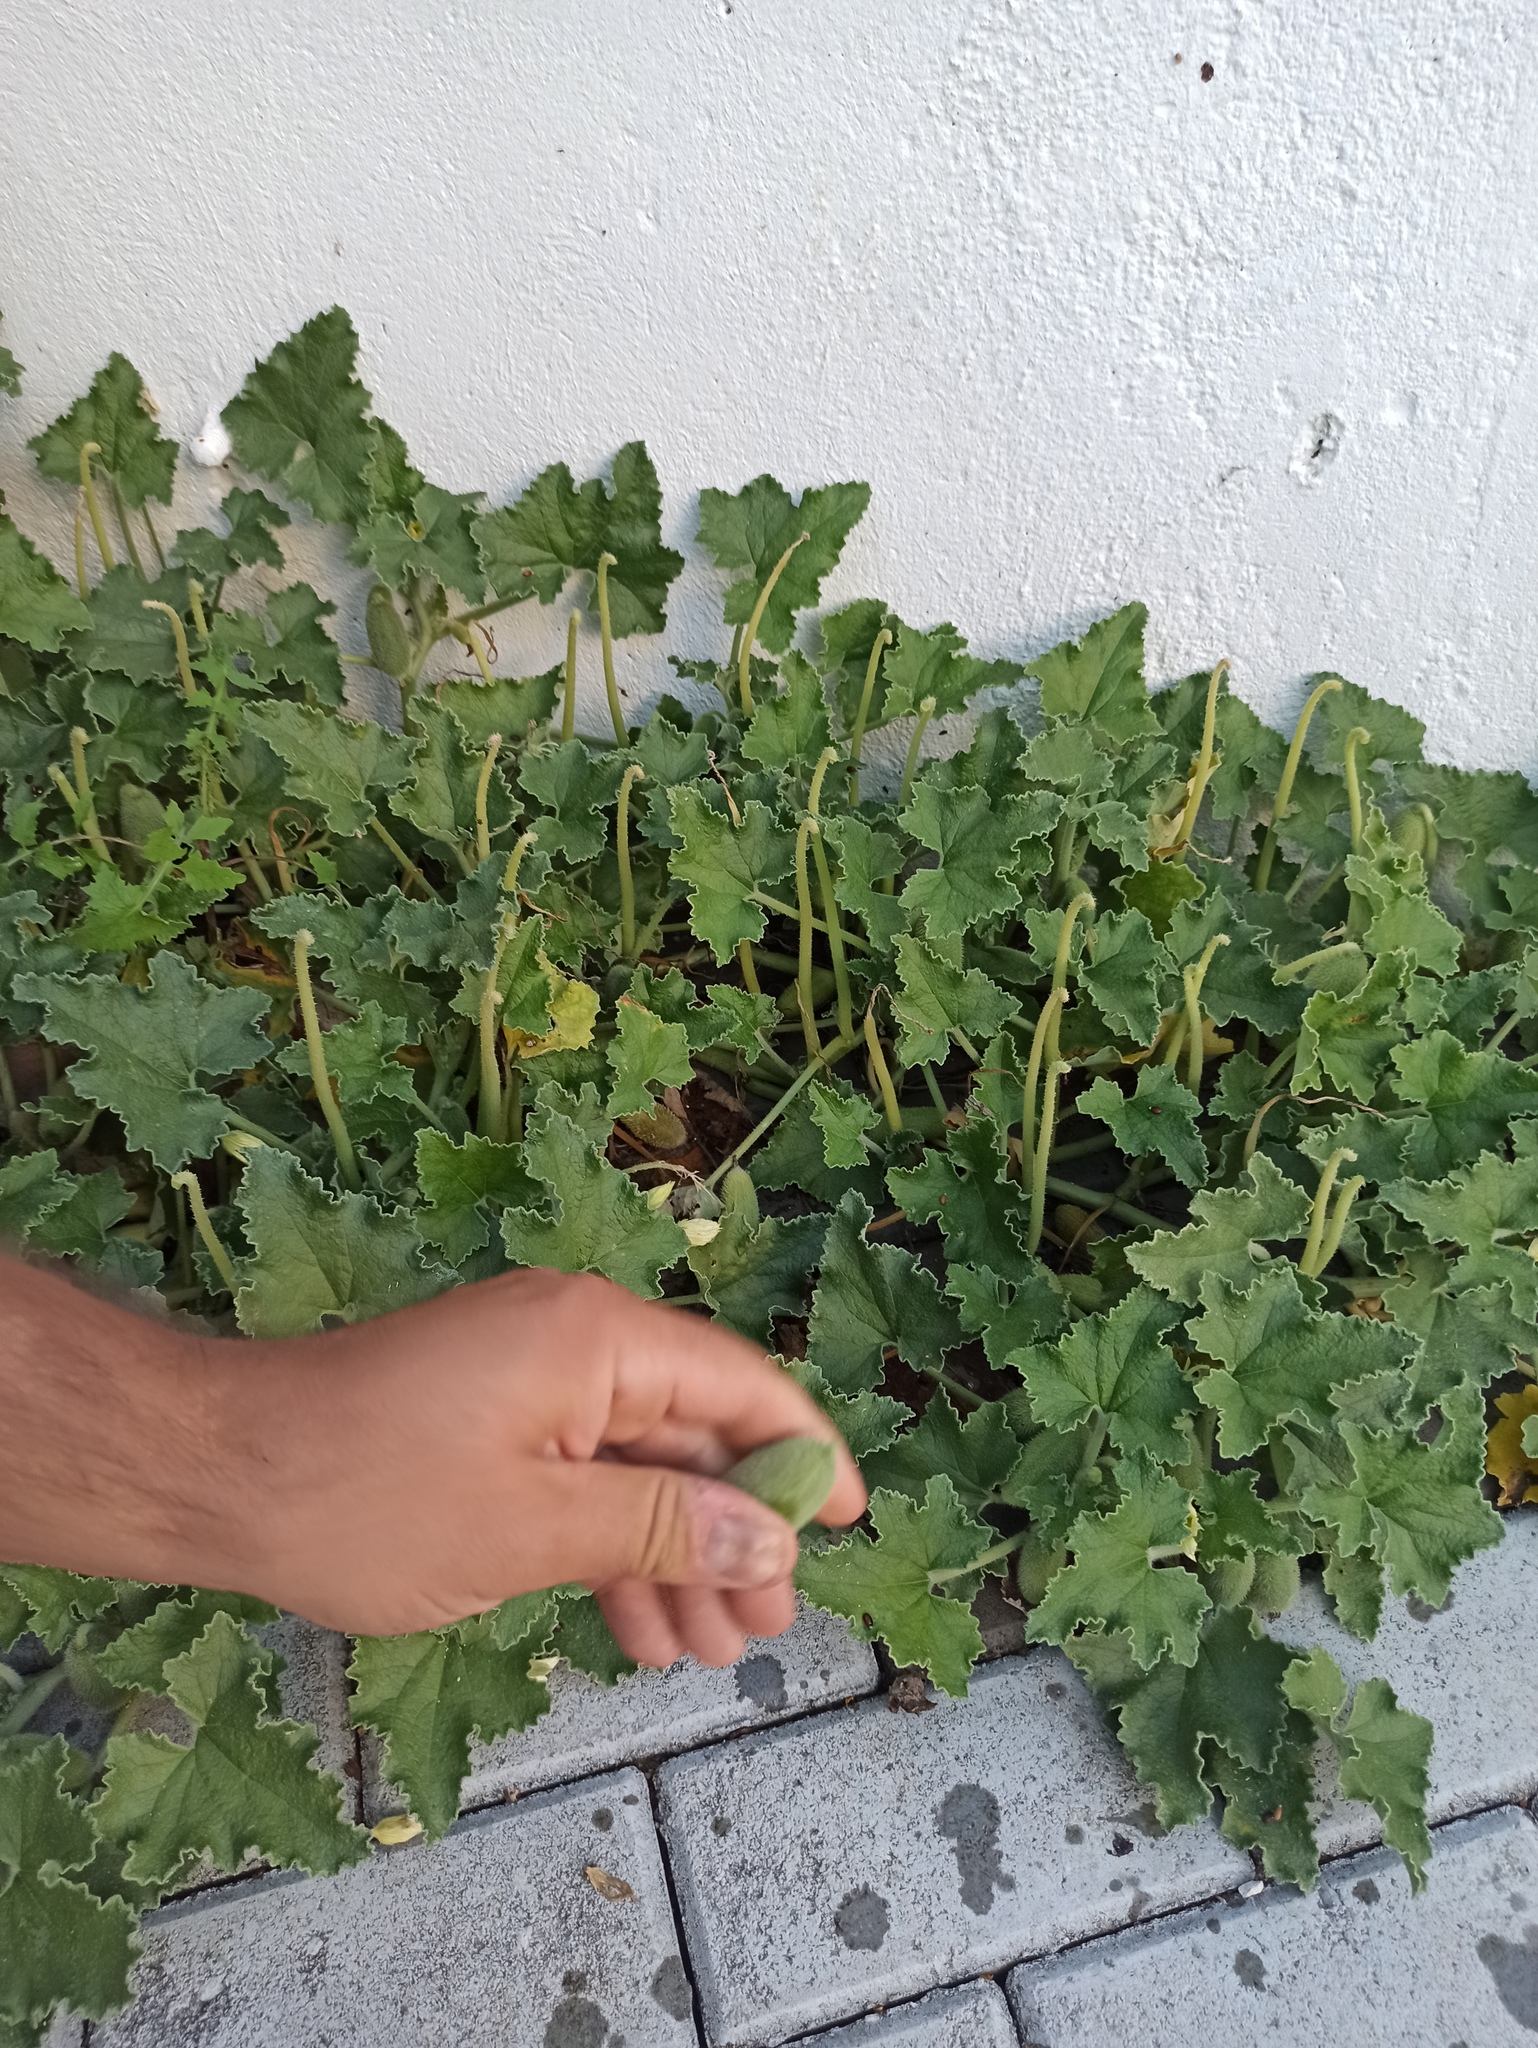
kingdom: Plantae
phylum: Tracheophyta
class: Magnoliopsida
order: Cucurbitales
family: Cucurbitaceae
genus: Ecballium
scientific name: Ecballium elaterium
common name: Squirting cucumber
